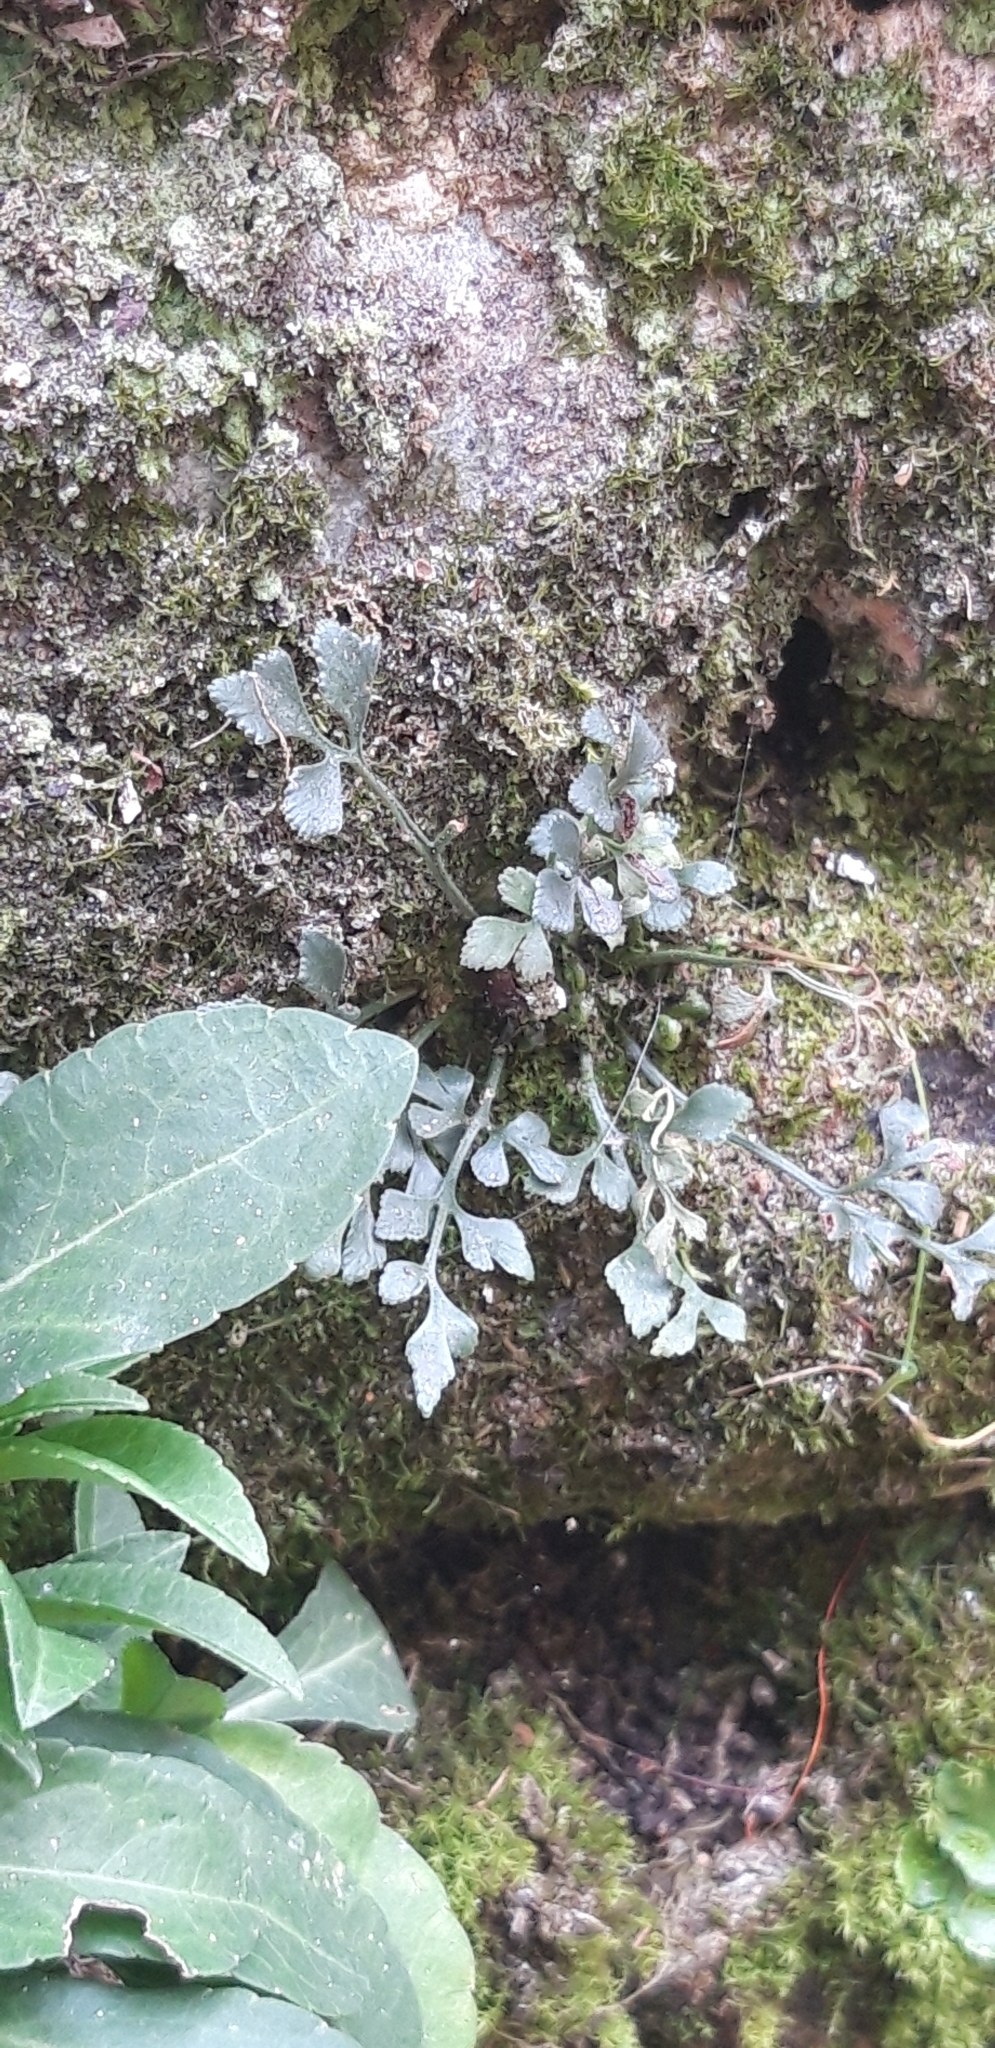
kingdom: Plantae
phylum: Tracheophyta
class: Polypodiopsida
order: Polypodiales
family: Aspleniaceae
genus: Asplenium
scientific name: Asplenium ruta-muraria
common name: Wall-rue
